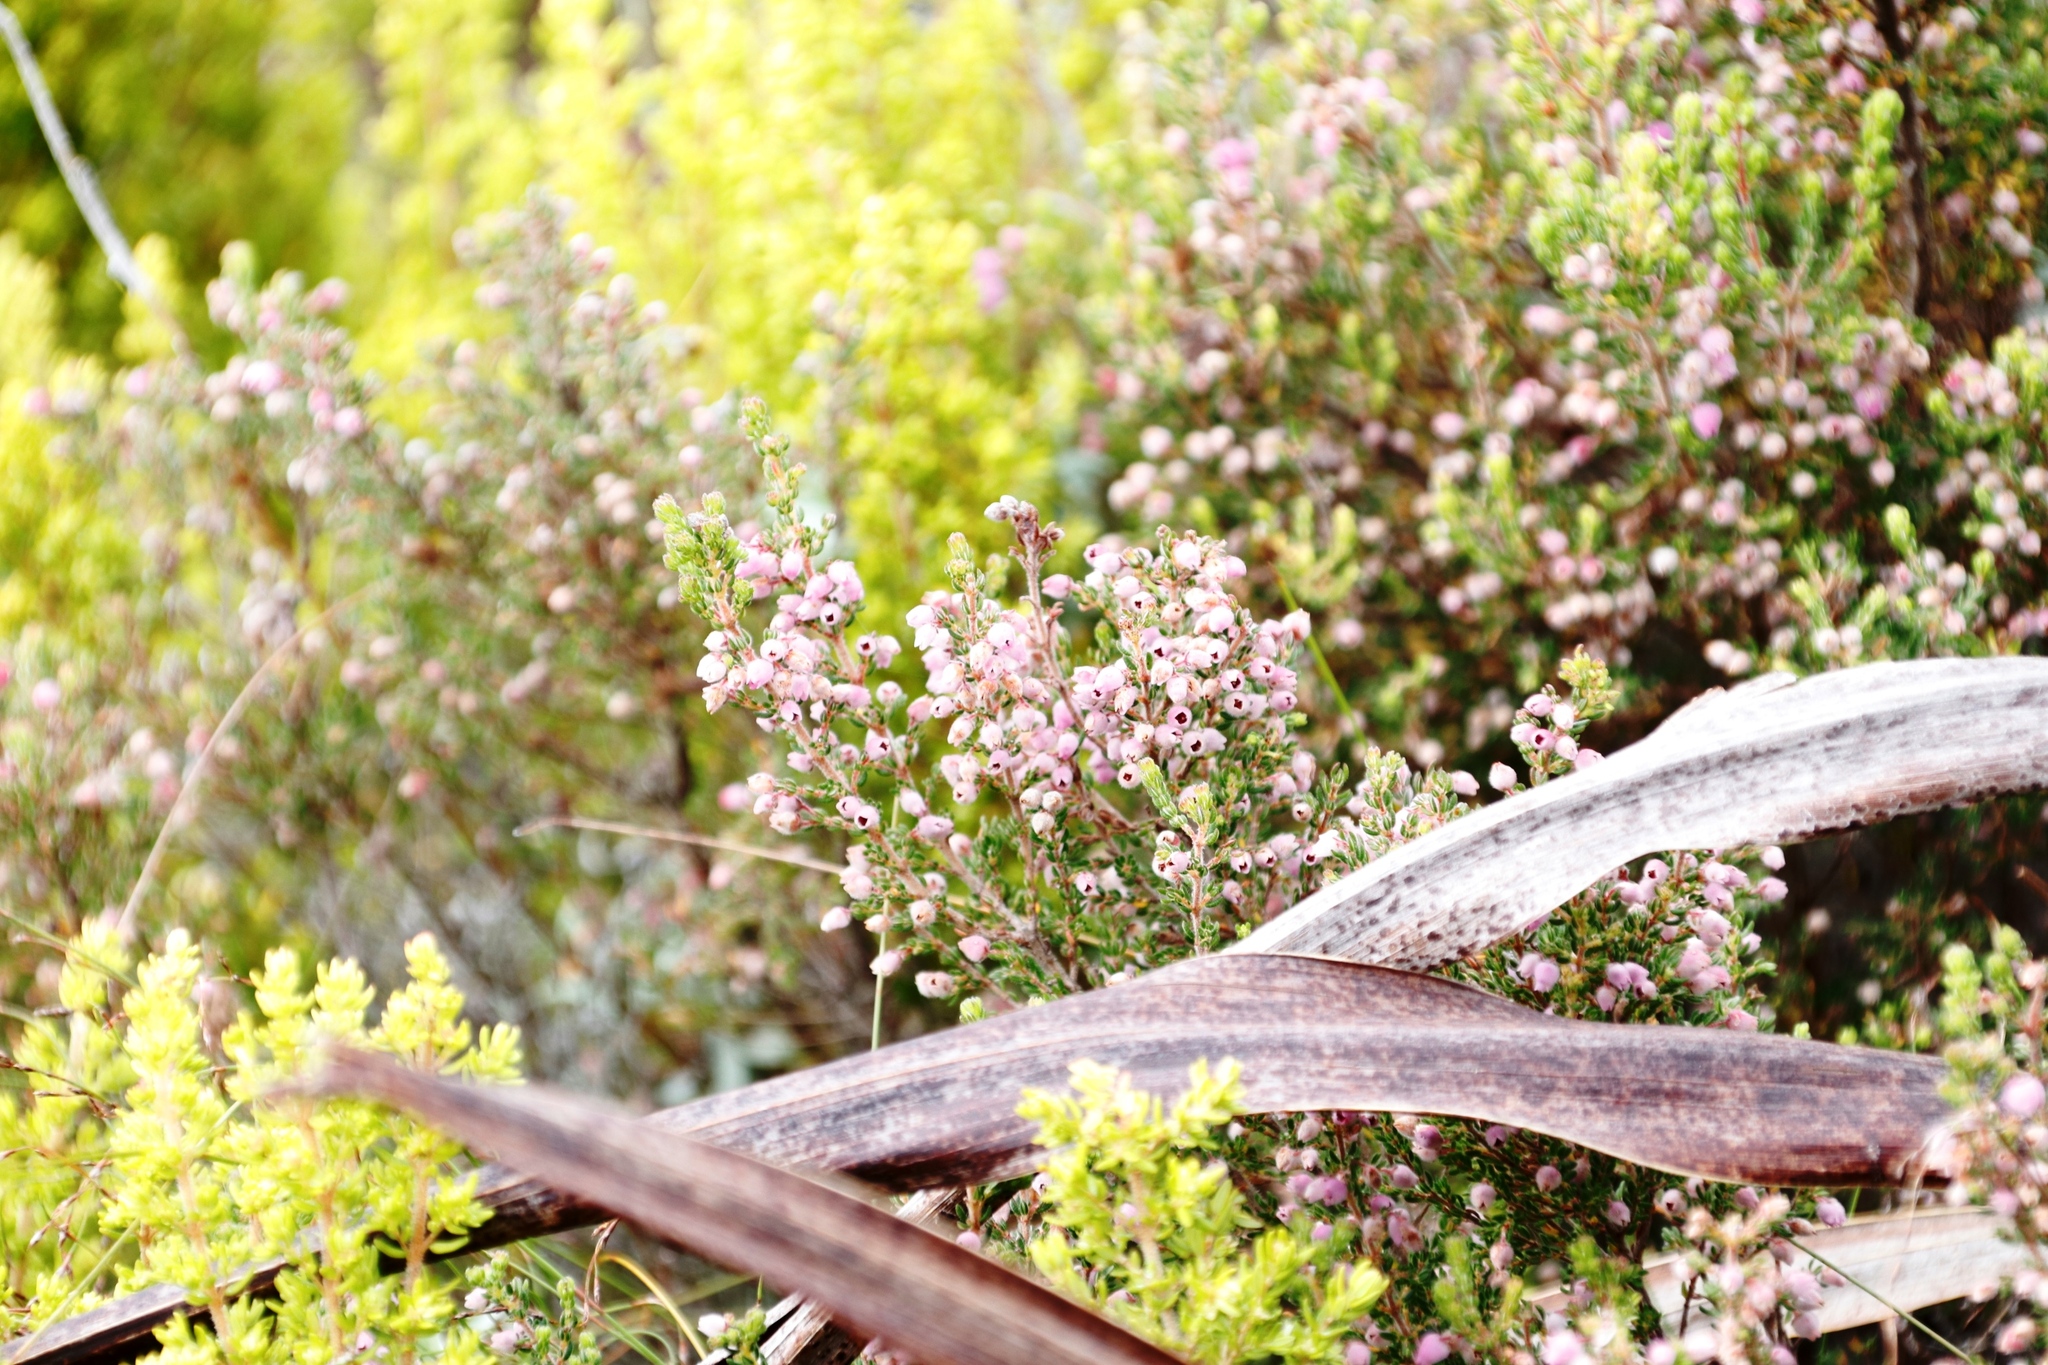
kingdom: Plantae
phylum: Tracheophyta
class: Magnoliopsida
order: Ericales
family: Ericaceae
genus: Erica
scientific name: Erica hirtiflora
